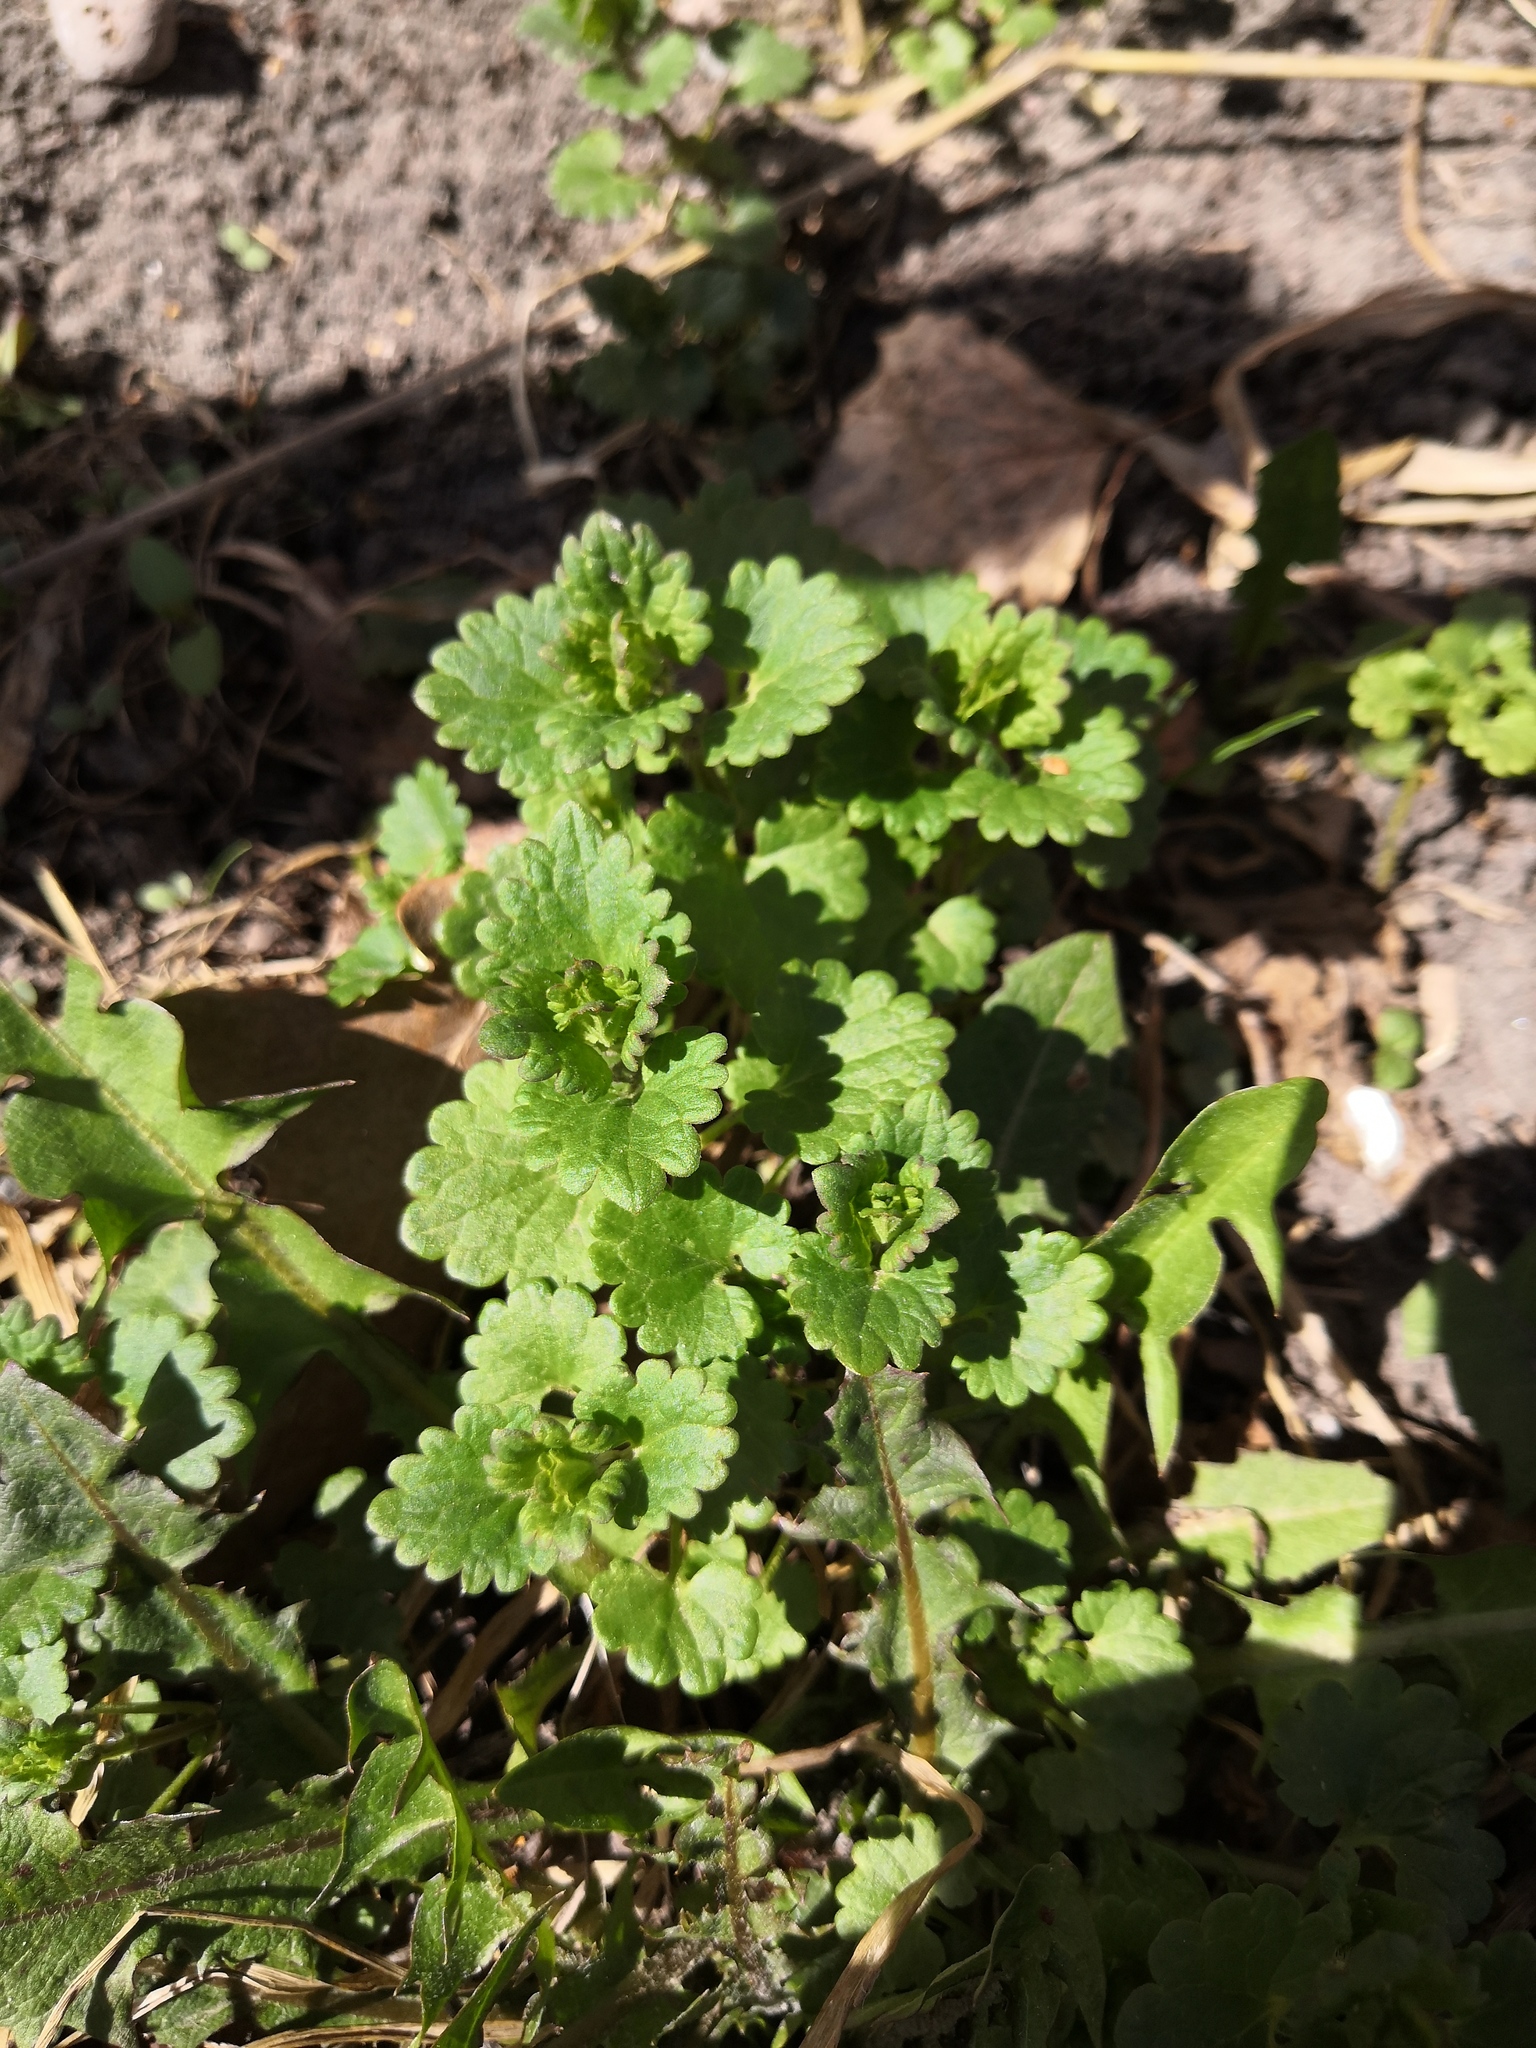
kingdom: Plantae
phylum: Tracheophyta
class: Magnoliopsida
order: Lamiales
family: Lamiaceae
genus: Glechoma
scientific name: Glechoma hederacea
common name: Ground ivy
